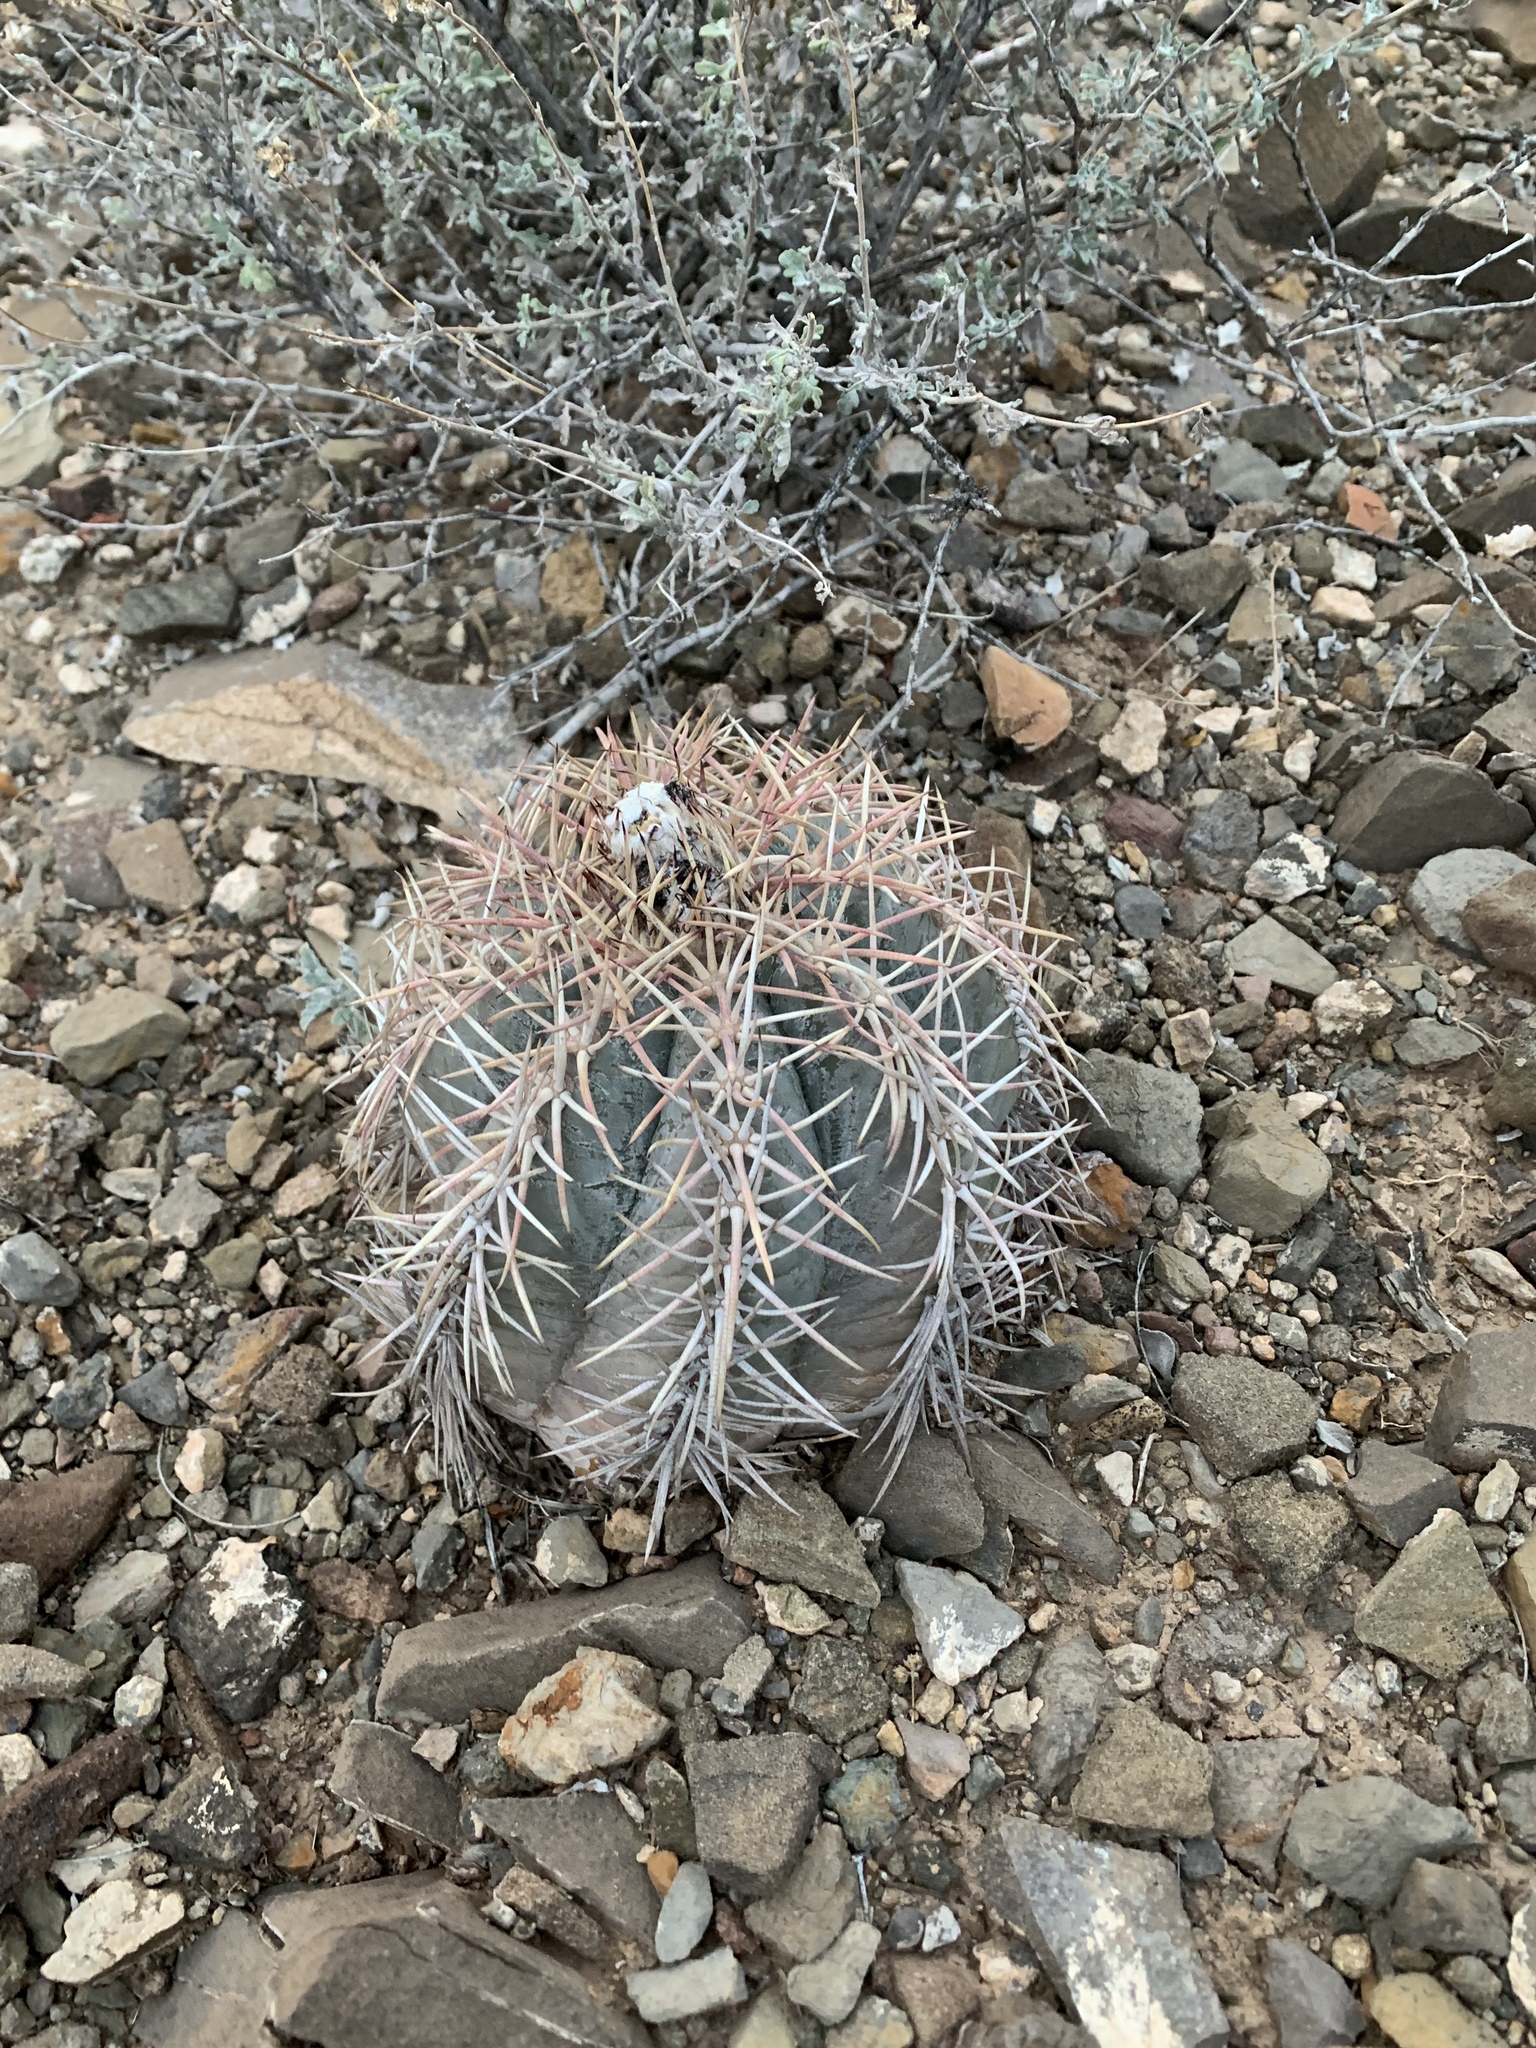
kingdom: Plantae
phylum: Tracheophyta
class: Magnoliopsida
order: Caryophyllales
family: Cactaceae
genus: Echinocactus
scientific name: Echinocactus horizonthalonius
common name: Devilshead
